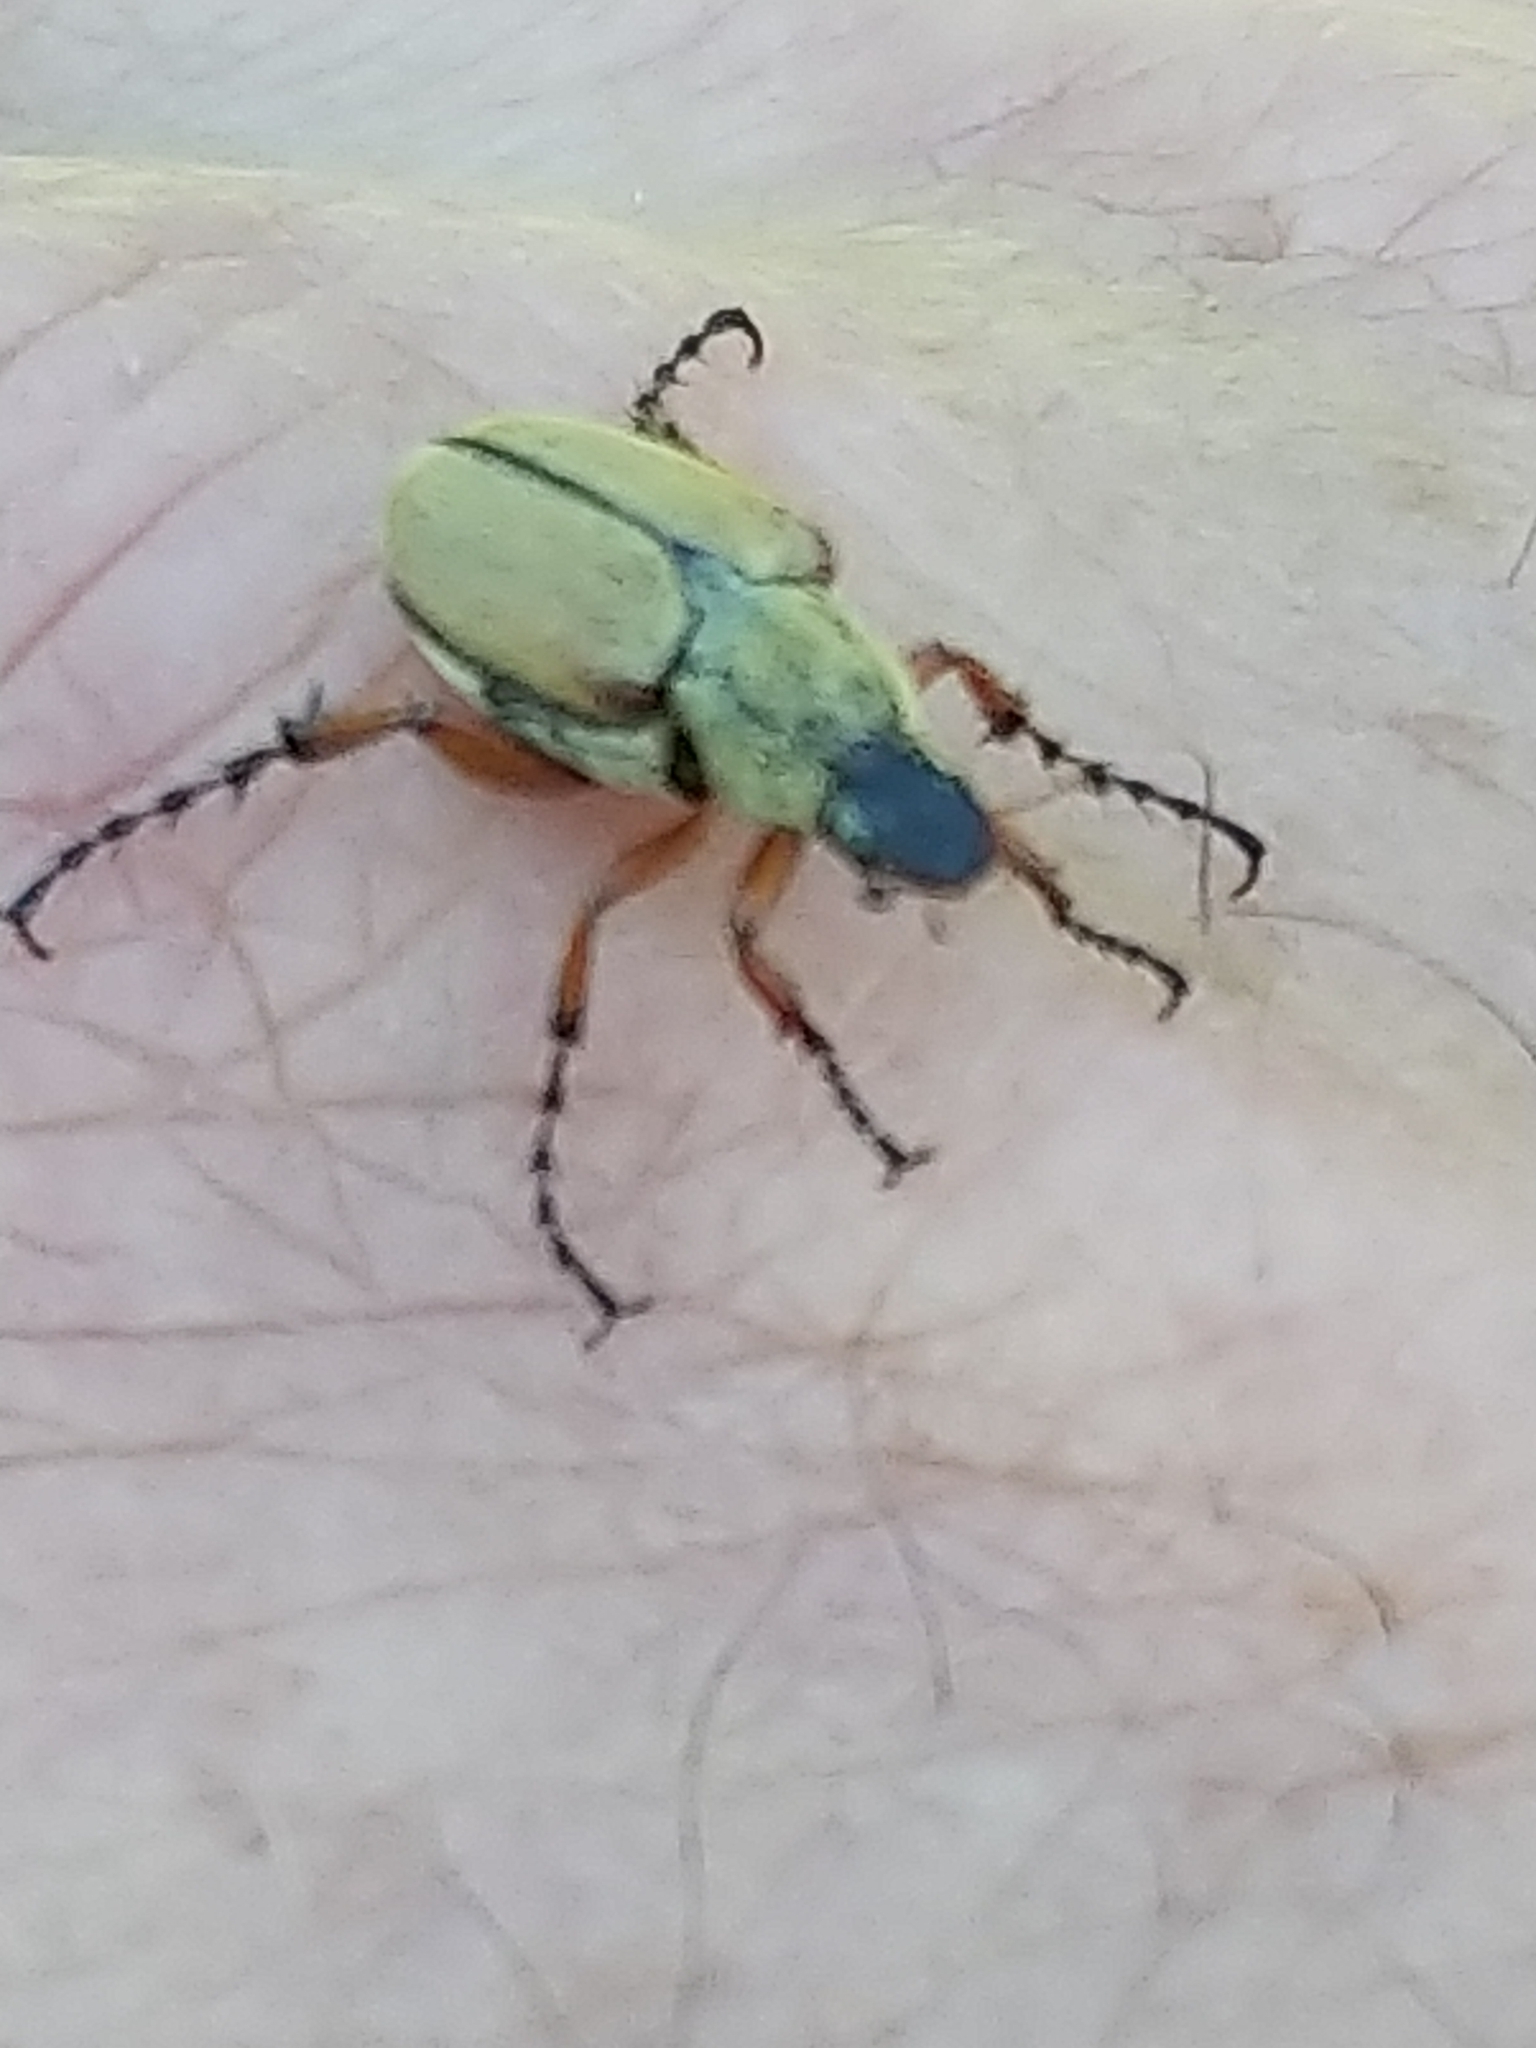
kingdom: Animalia
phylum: Arthropoda
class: Insecta
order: Coleoptera
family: Scarabaeidae
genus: Macrodactylus
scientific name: Macrodactylus subspinosus
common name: American rose chafer
